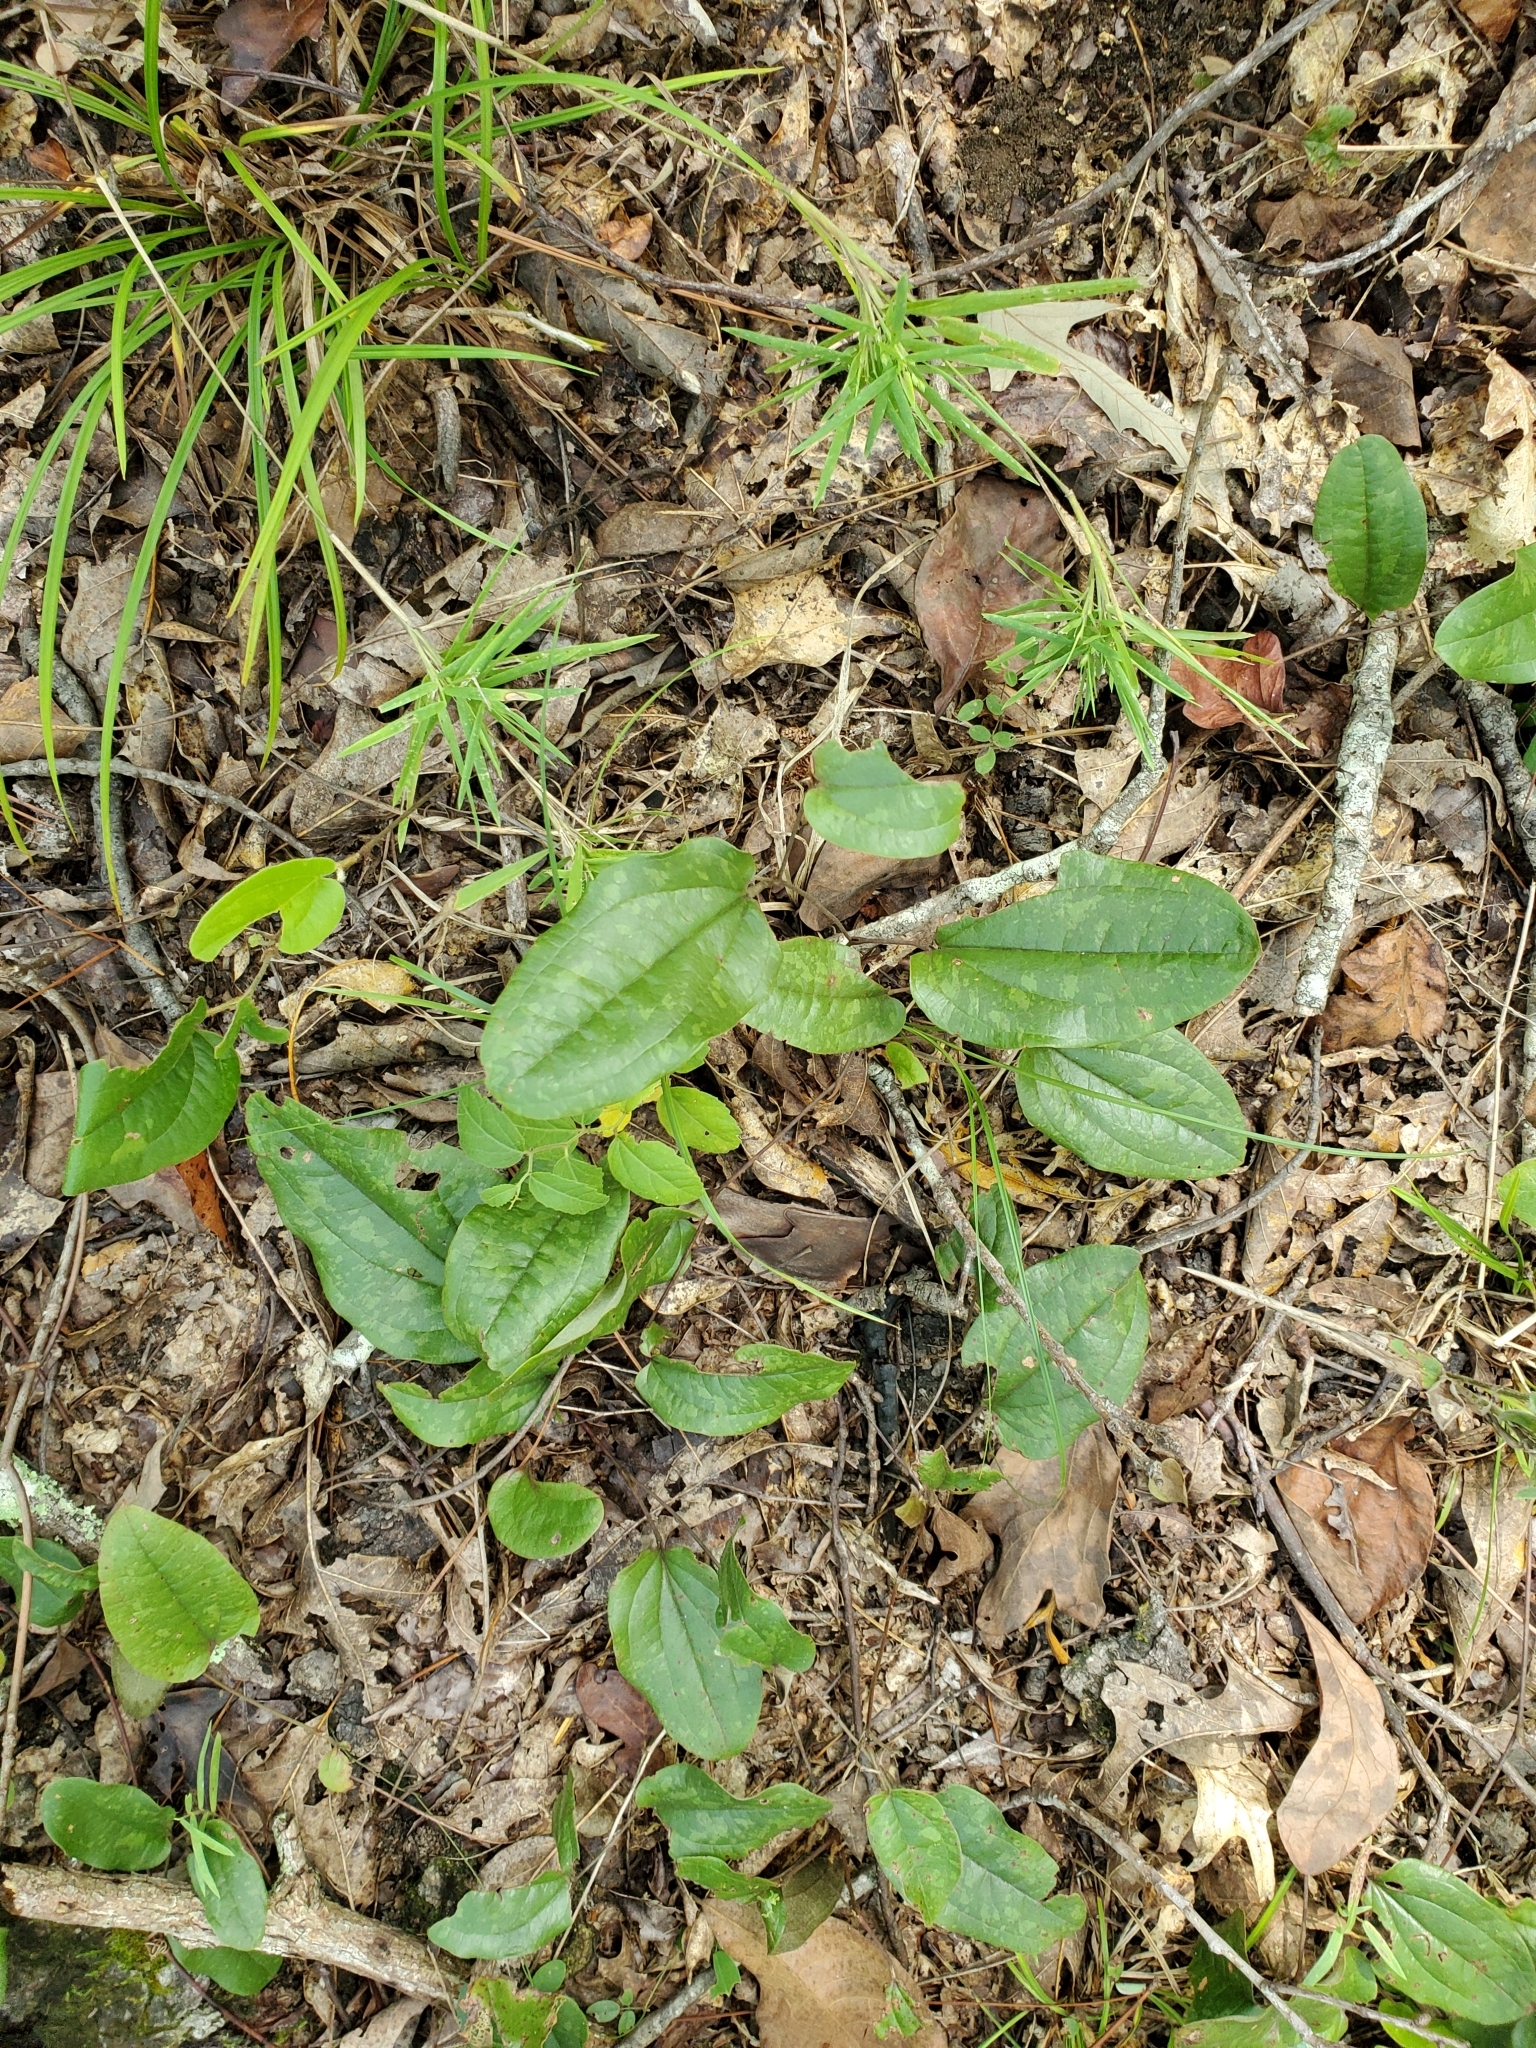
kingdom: Plantae
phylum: Tracheophyta
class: Liliopsida
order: Liliales
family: Smilacaceae
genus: Smilax
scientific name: Smilax pumila
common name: Sarsaparilla-vine
